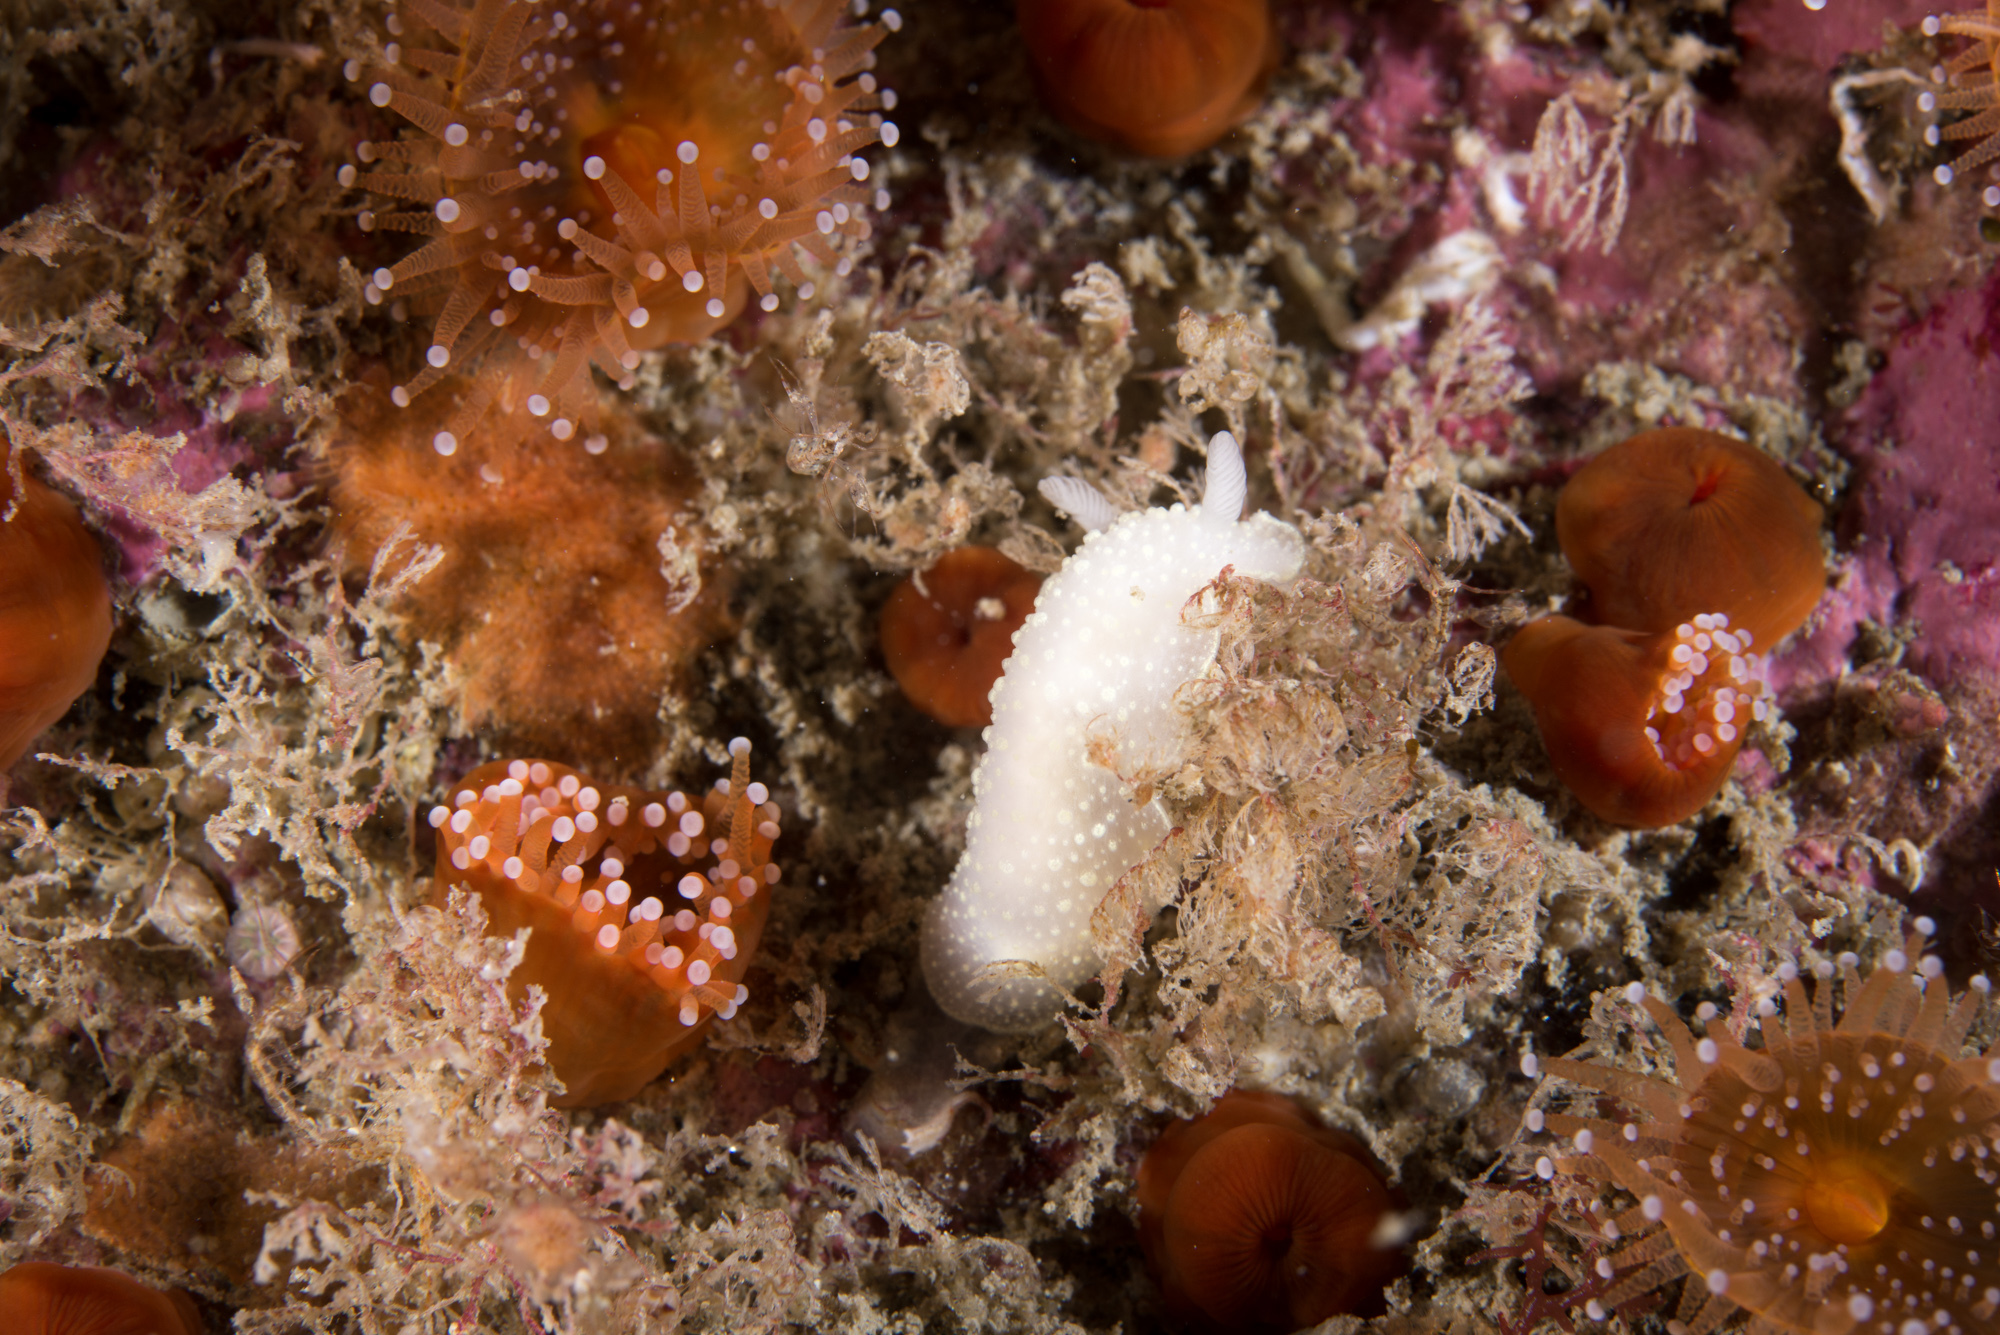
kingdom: Animalia
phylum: Mollusca
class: Gastropoda
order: Nudibranchia
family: Cadlinidae
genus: Cadlina
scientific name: Cadlina laevis
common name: White atlantic cadlina
